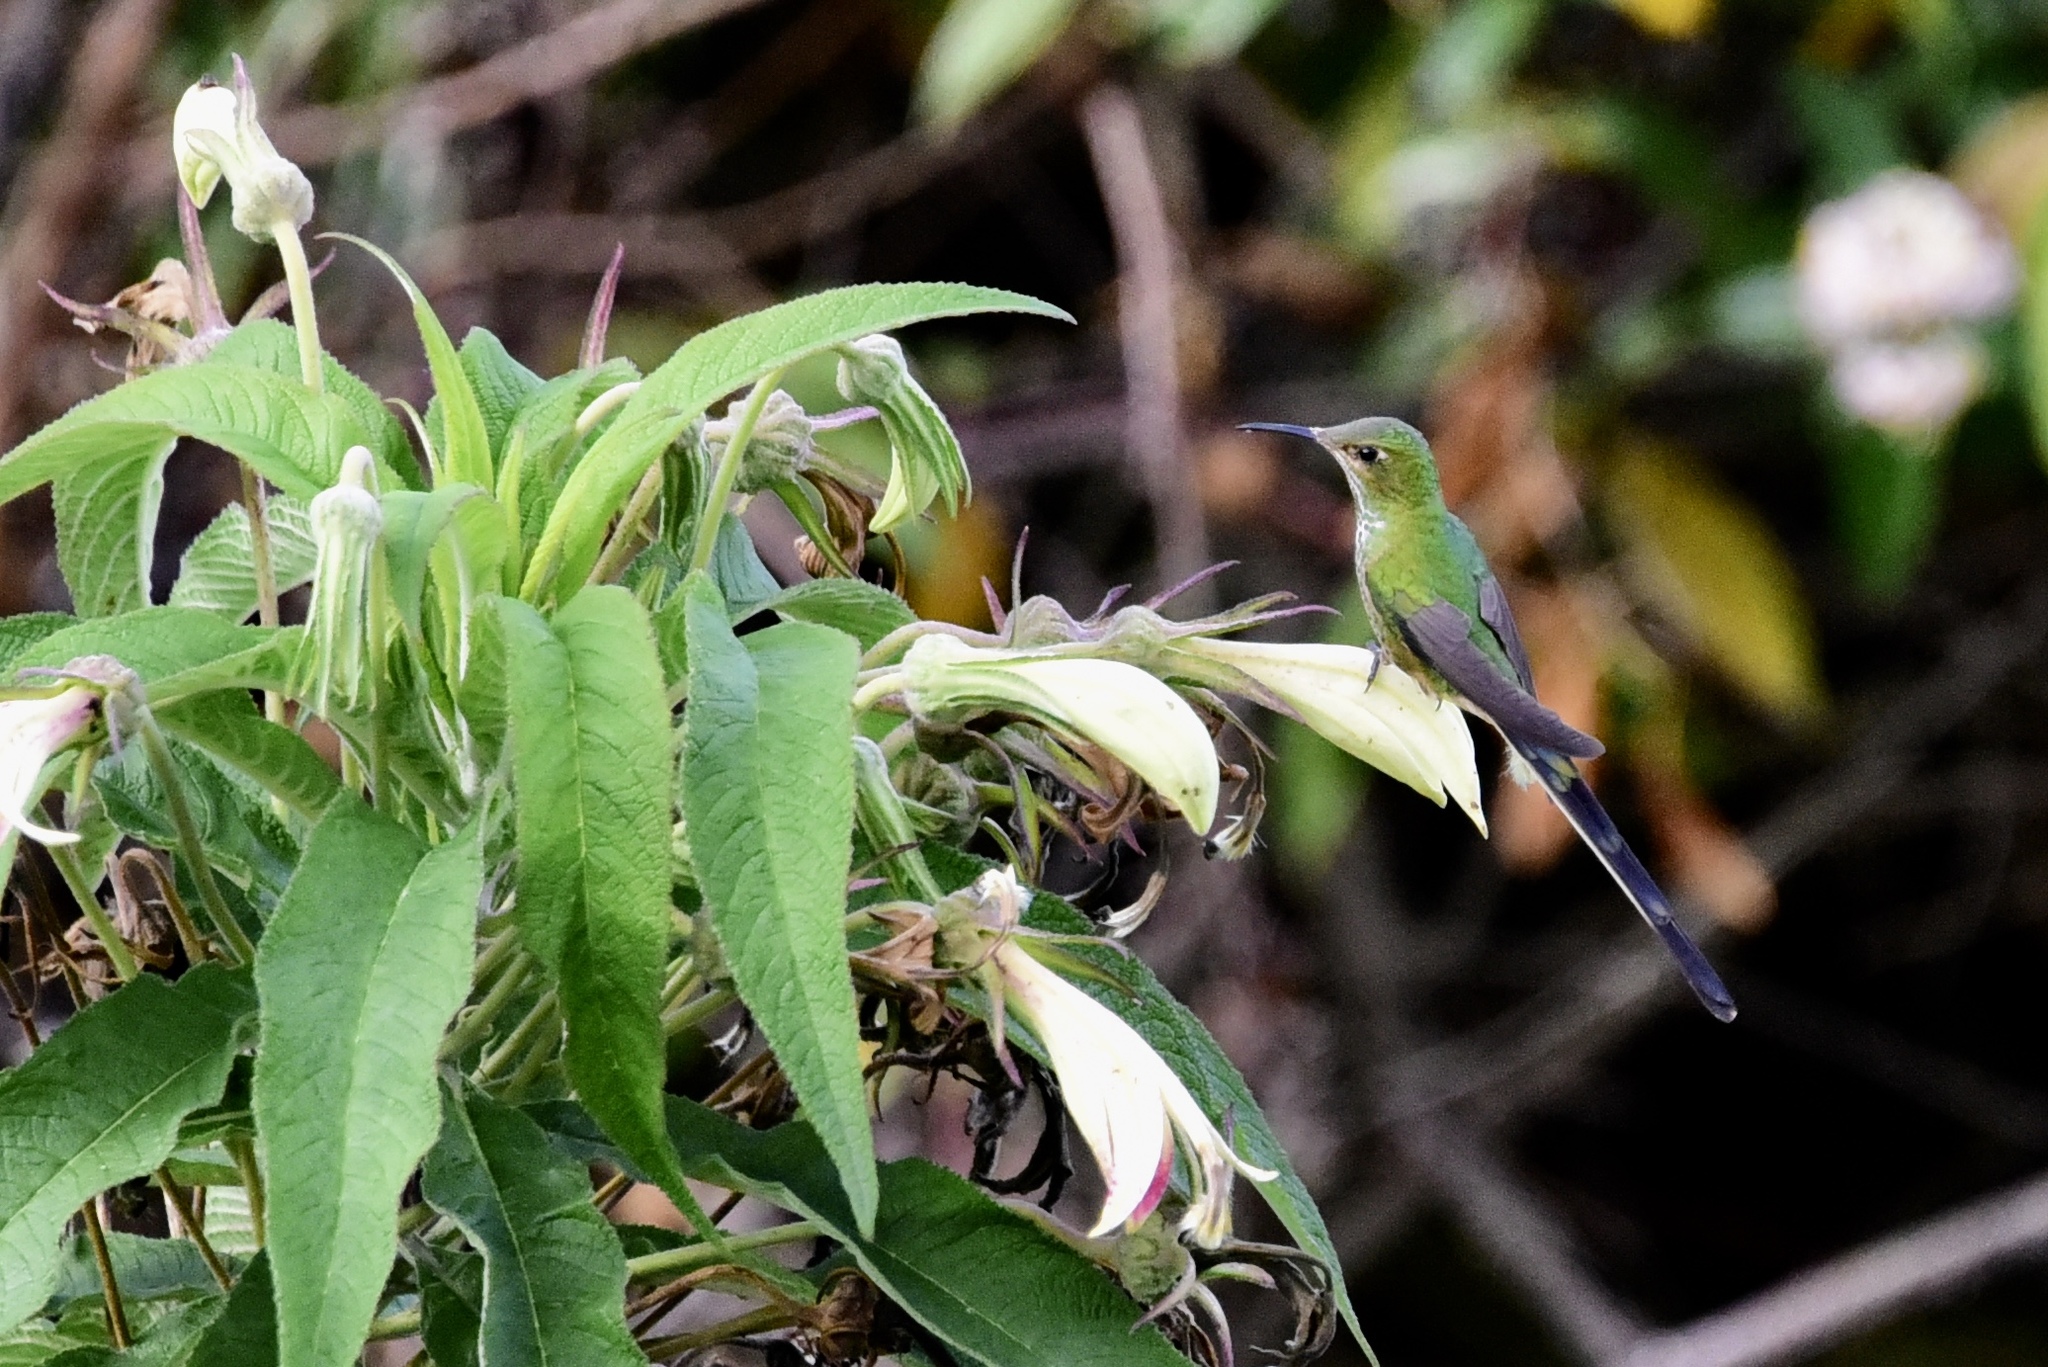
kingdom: Animalia
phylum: Chordata
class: Aves
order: Apodiformes
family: Trochilidae
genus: Lesbia
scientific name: Lesbia victoriae
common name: Black-tailed trainbearer
